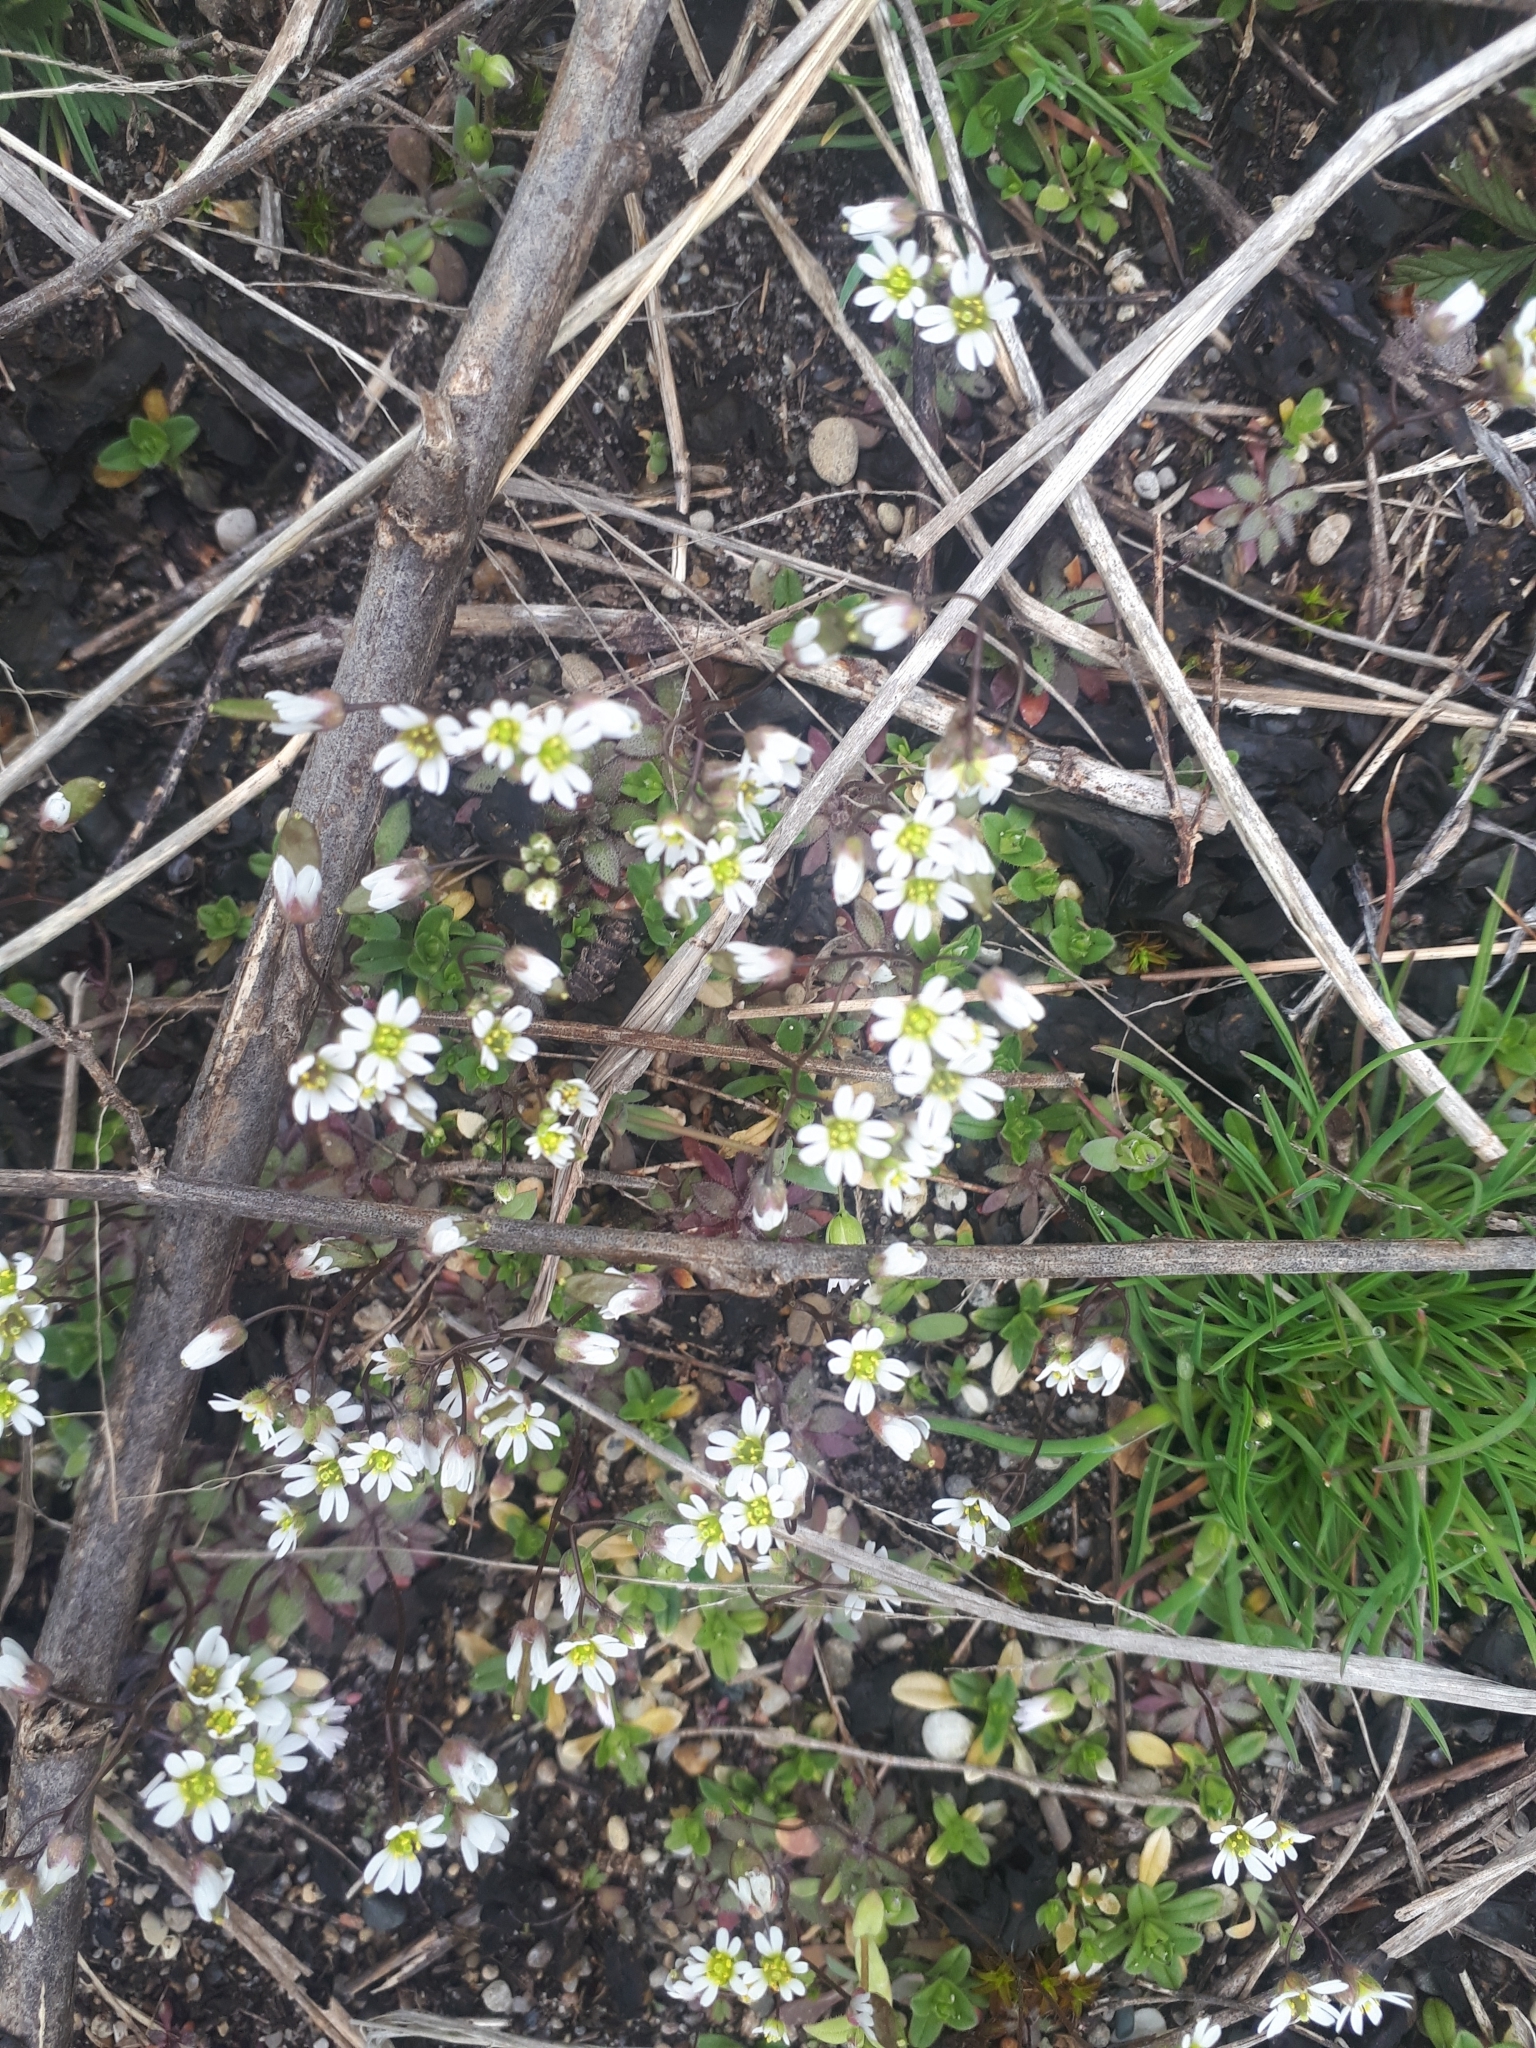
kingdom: Plantae
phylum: Tracheophyta
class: Magnoliopsida
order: Brassicales
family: Brassicaceae
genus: Draba
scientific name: Draba verna
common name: Spring draba
